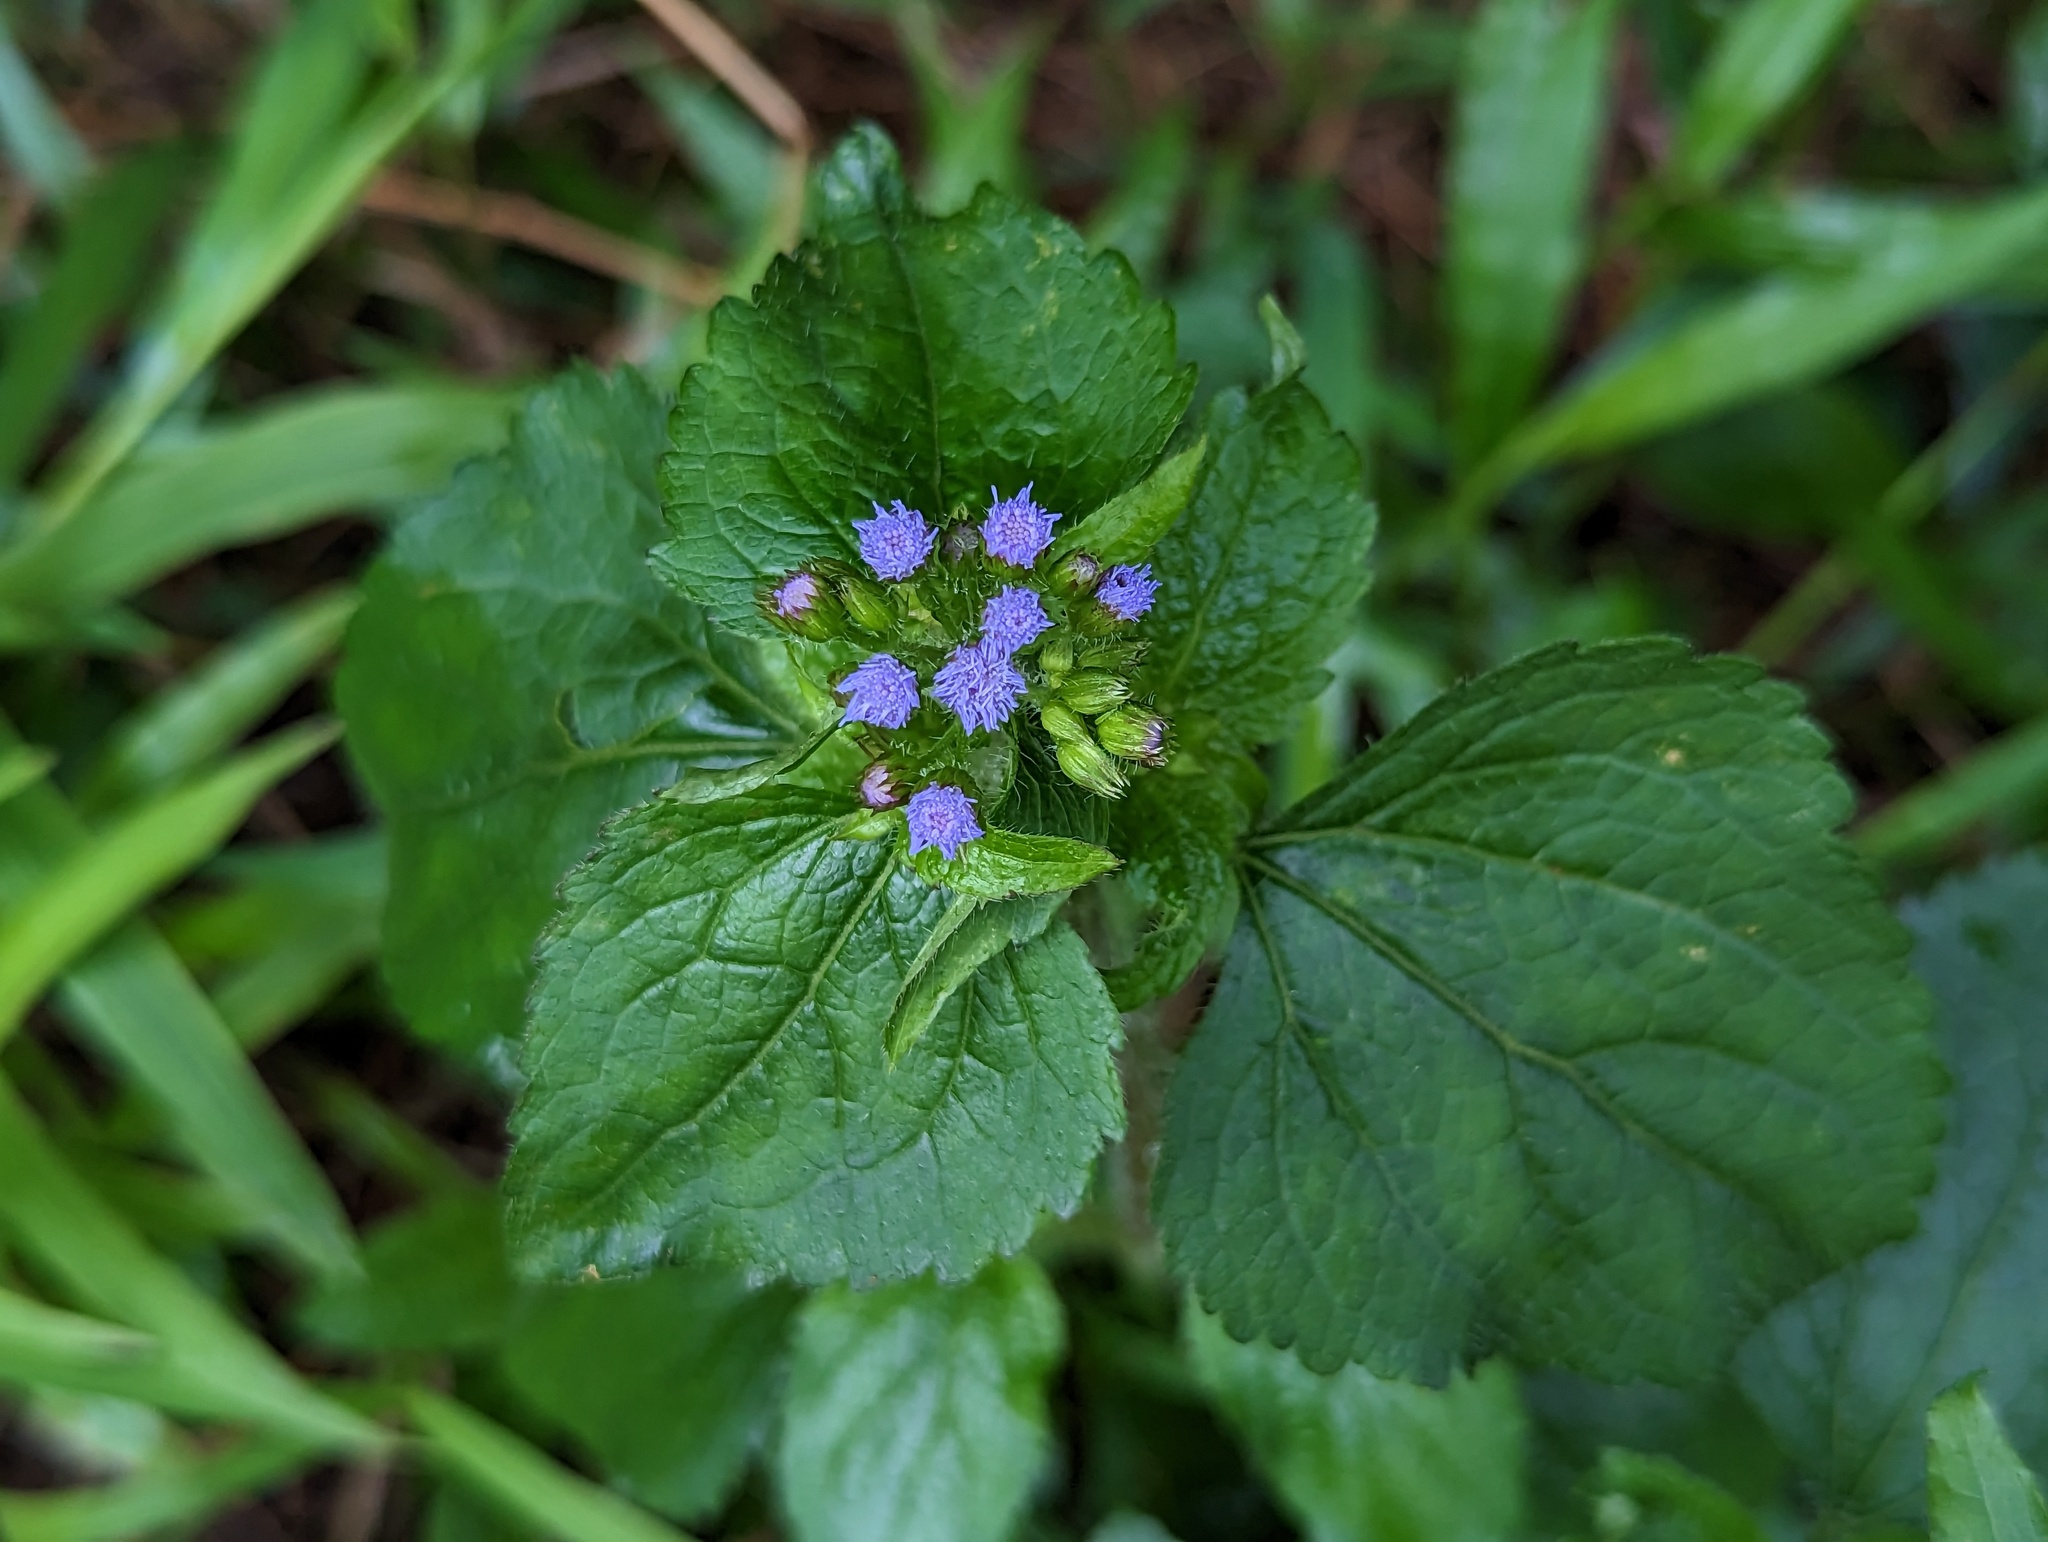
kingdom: Plantae
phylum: Tracheophyta
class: Magnoliopsida
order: Asterales
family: Asteraceae
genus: Ageratum
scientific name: Ageratum conyzoides
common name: Tropical whiteweed
